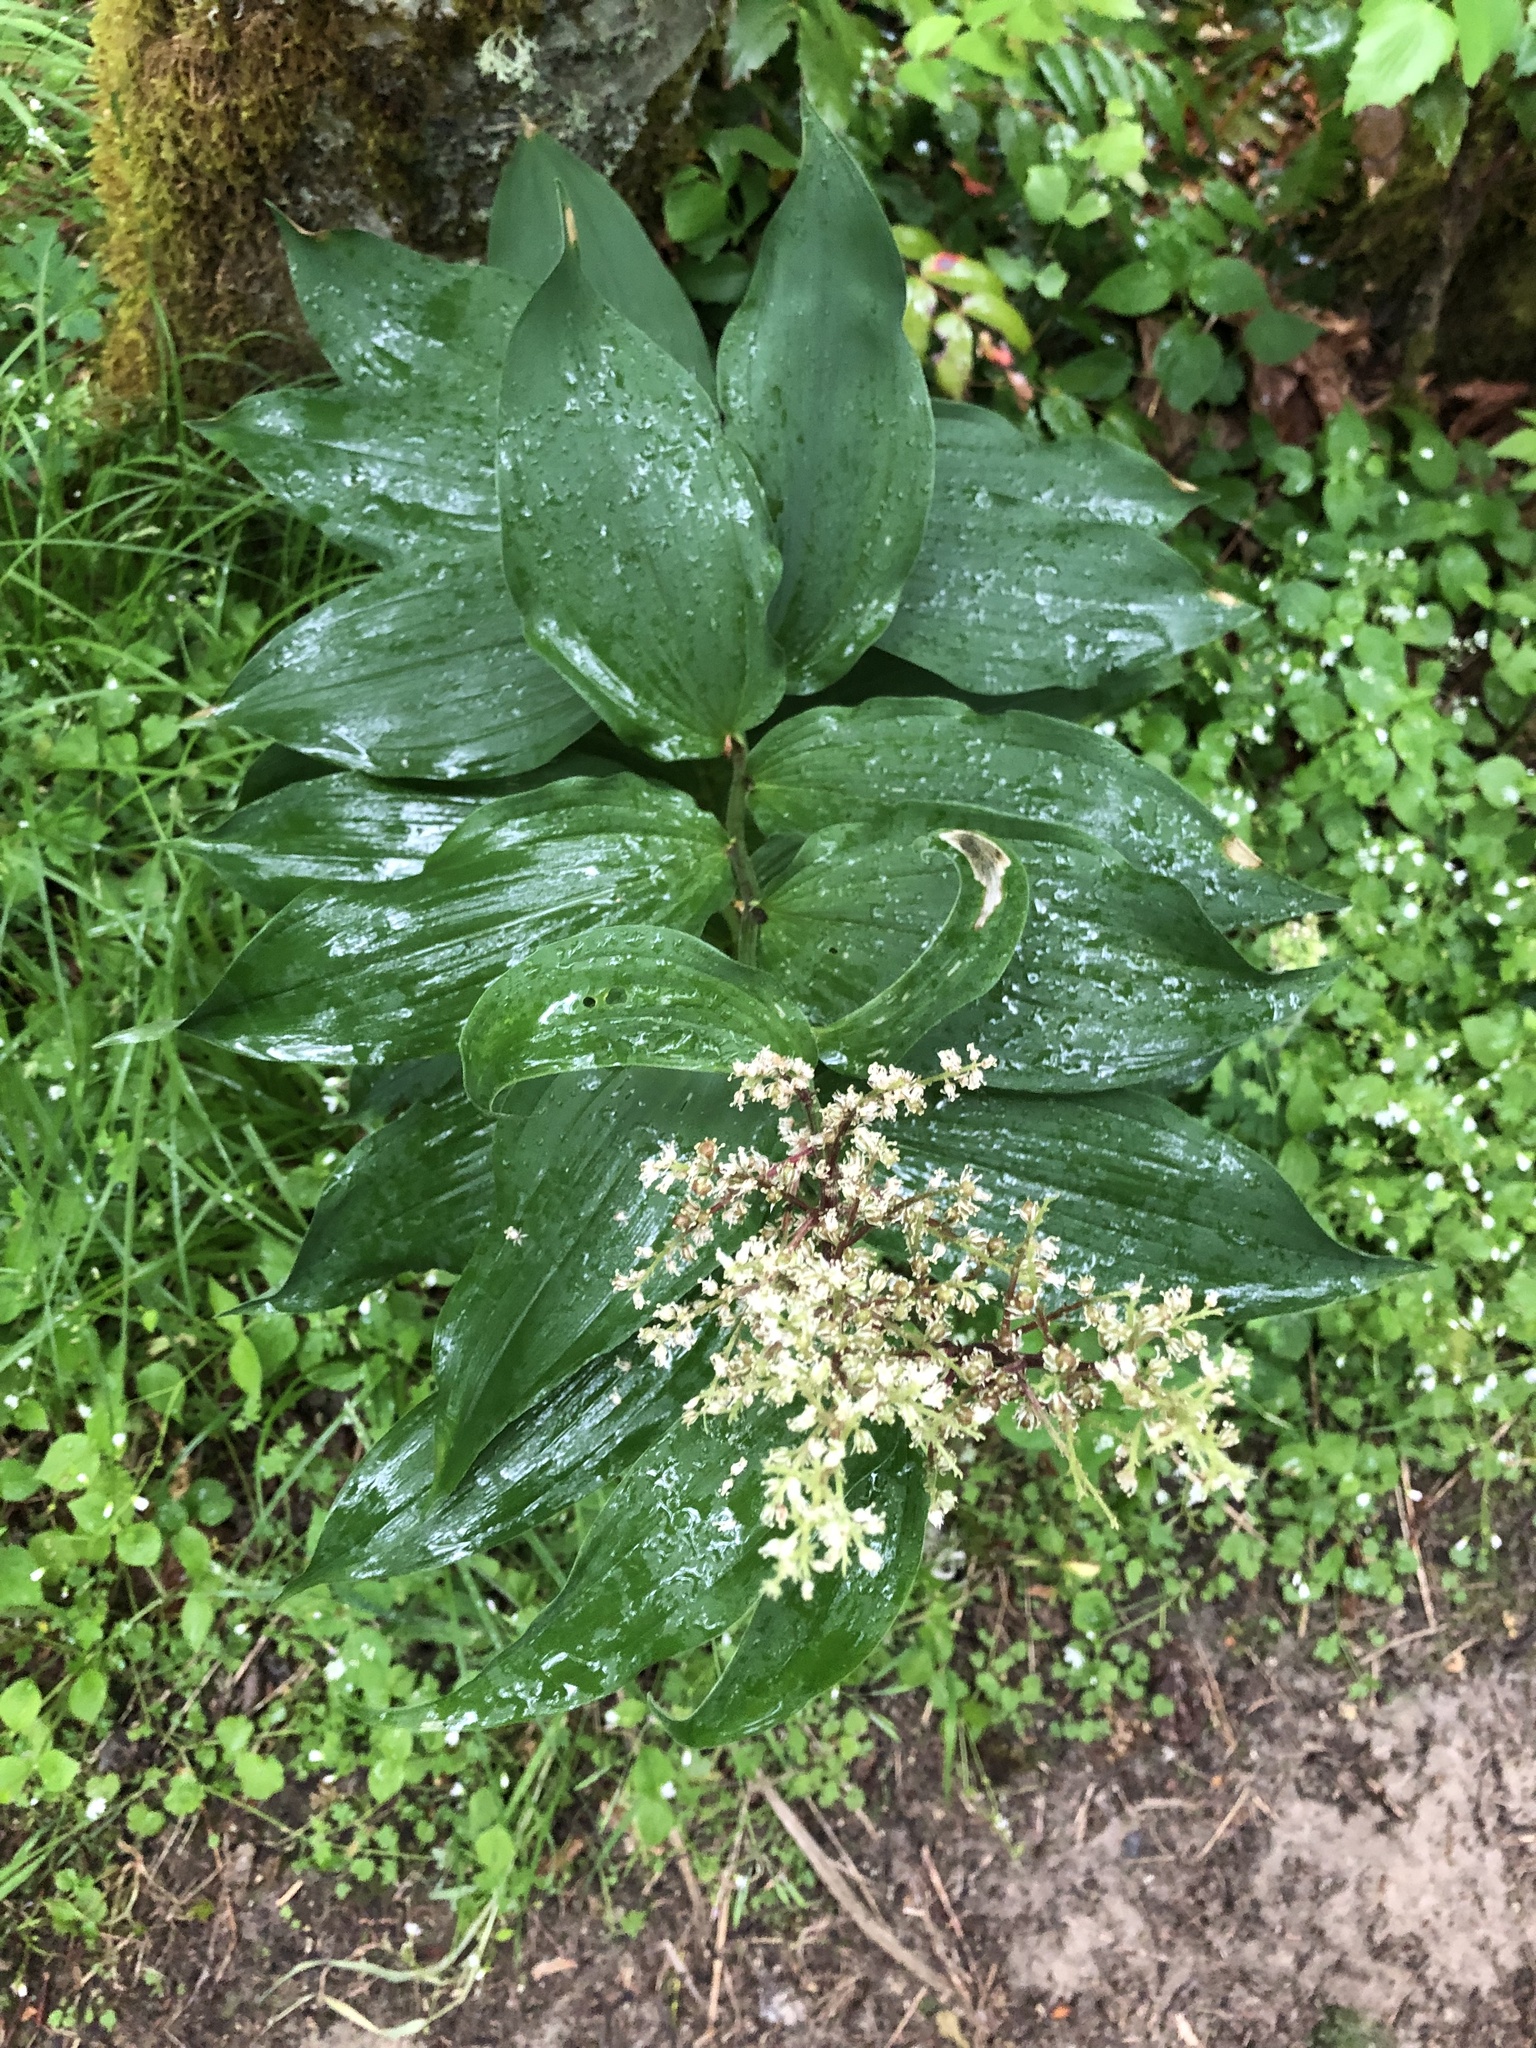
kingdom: Plantae
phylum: Tracheophyta
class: Liliopsida
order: Asparagales
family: Asparagaceae
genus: Maianthemum
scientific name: Maianthemum racemosum
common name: False spikenard
